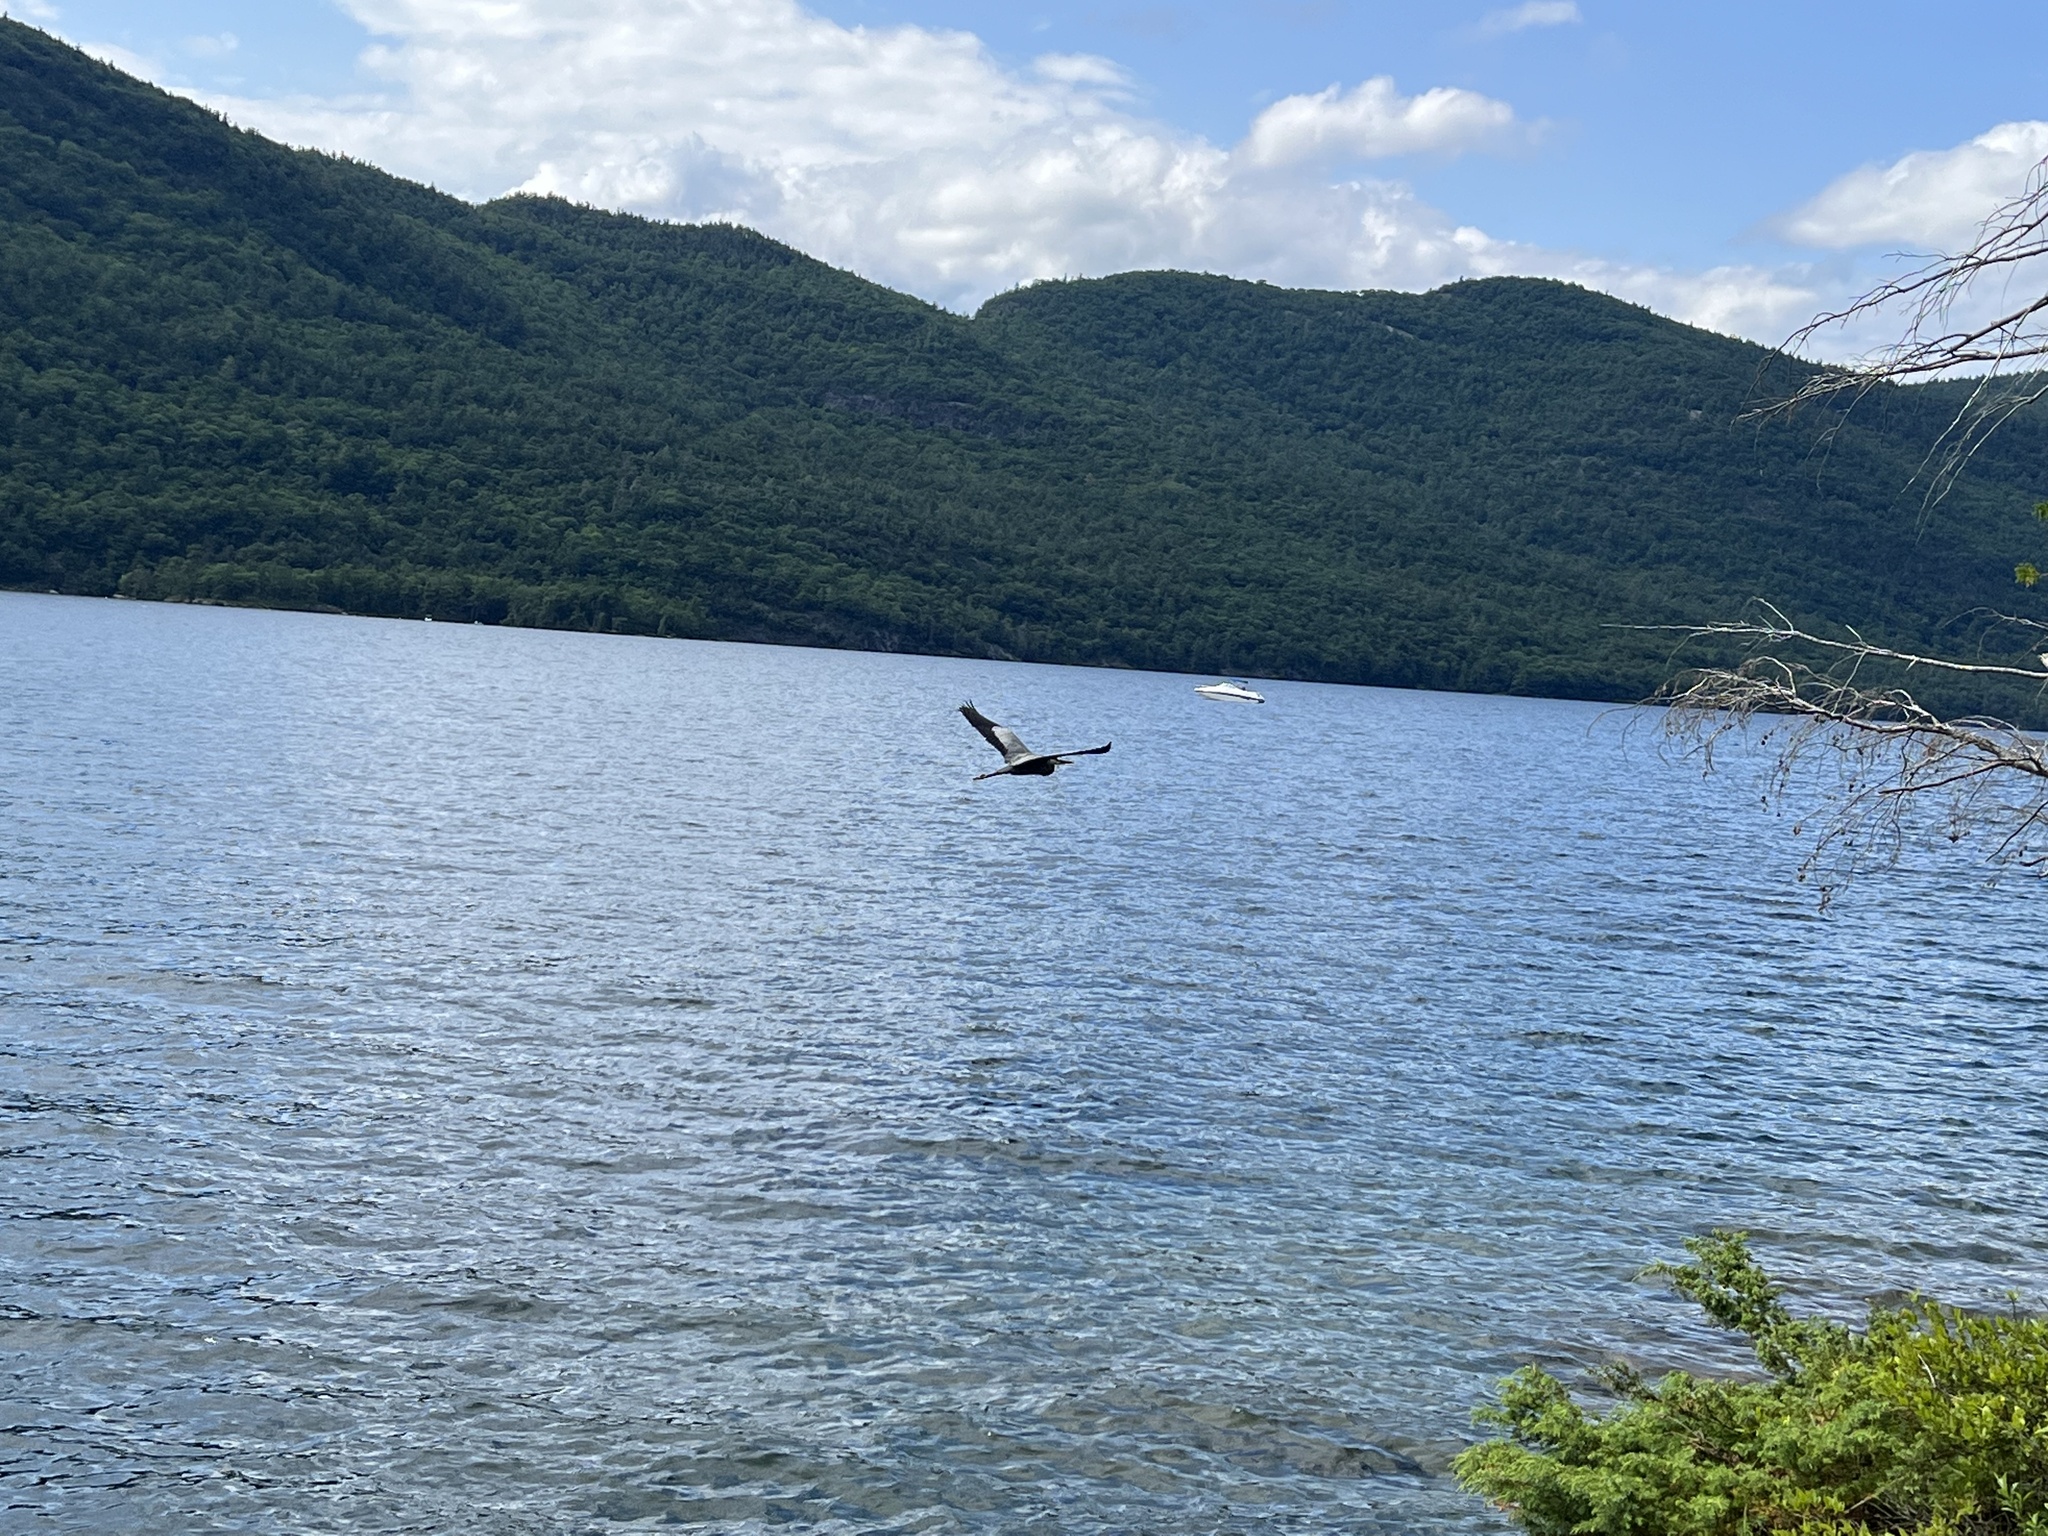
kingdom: Animalia
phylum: Chordata
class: Aves
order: Pelecaniformes
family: Ardeidae
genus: Ardea
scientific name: Ardea herodias
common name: Great blue heron
